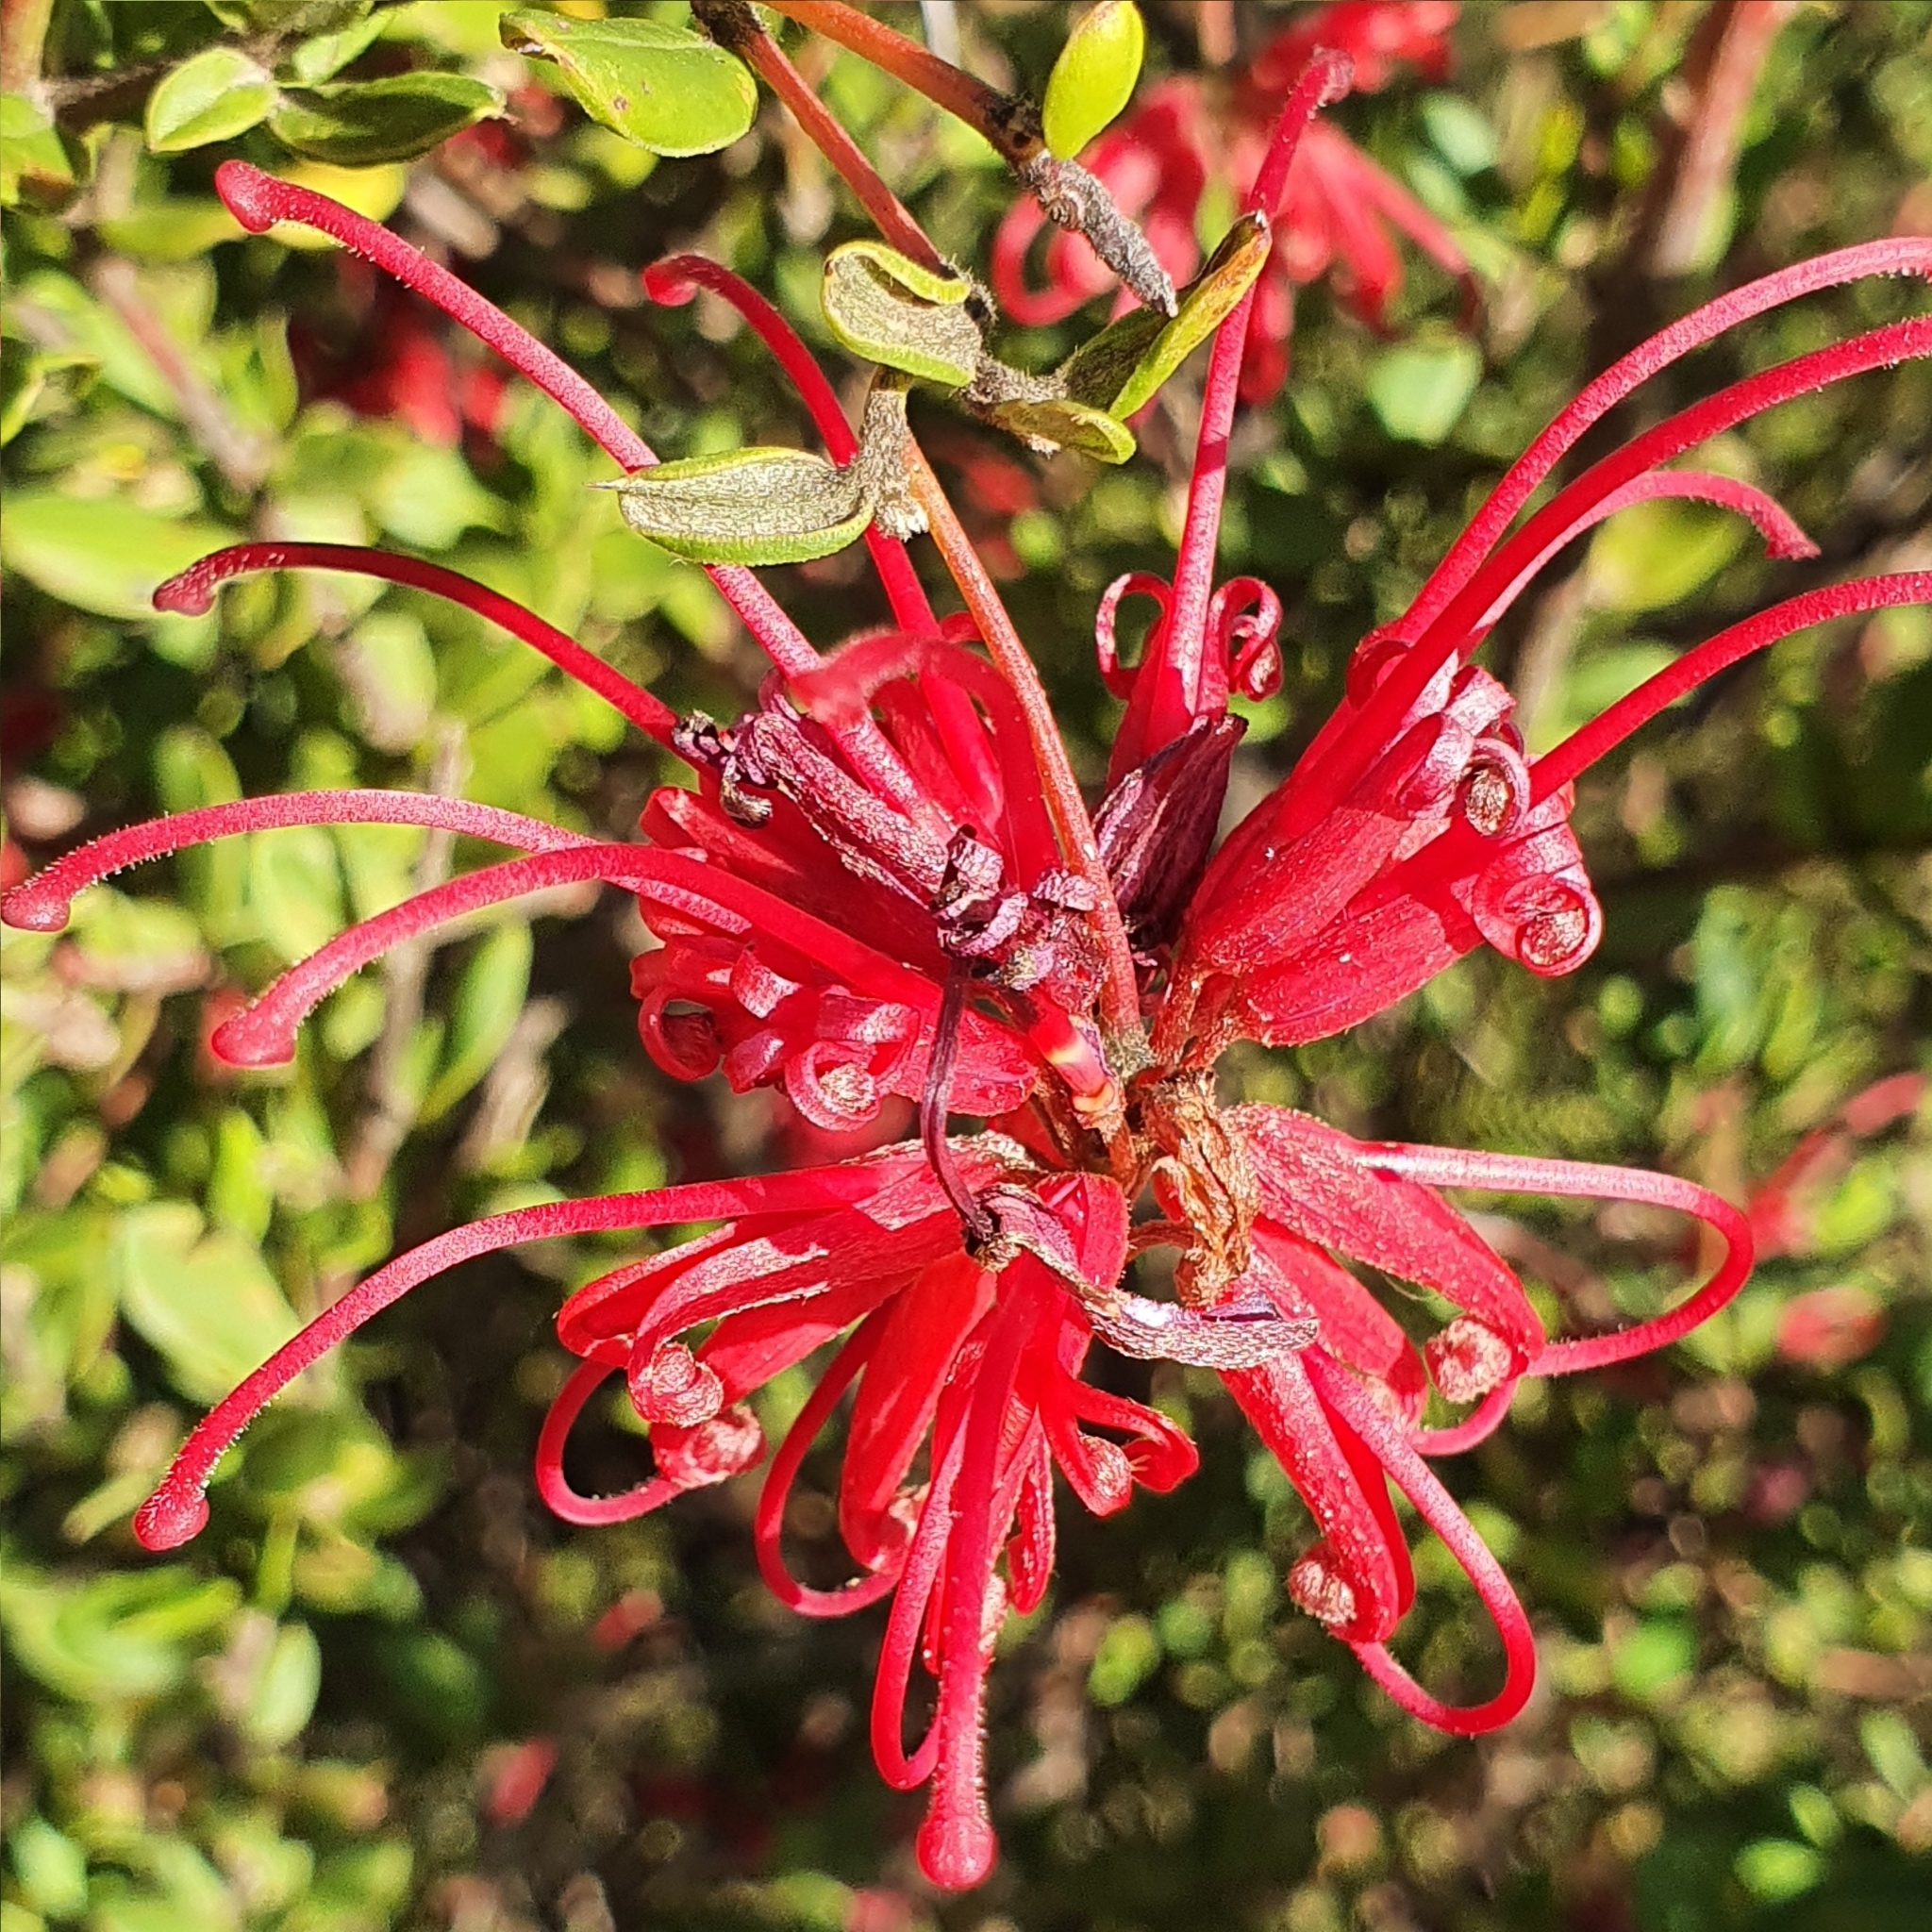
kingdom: Plantae
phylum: Tracheophyta
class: Magnoliopsida
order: Proteales
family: Proteaceae
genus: Grevillea
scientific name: Grevillea speciosa
